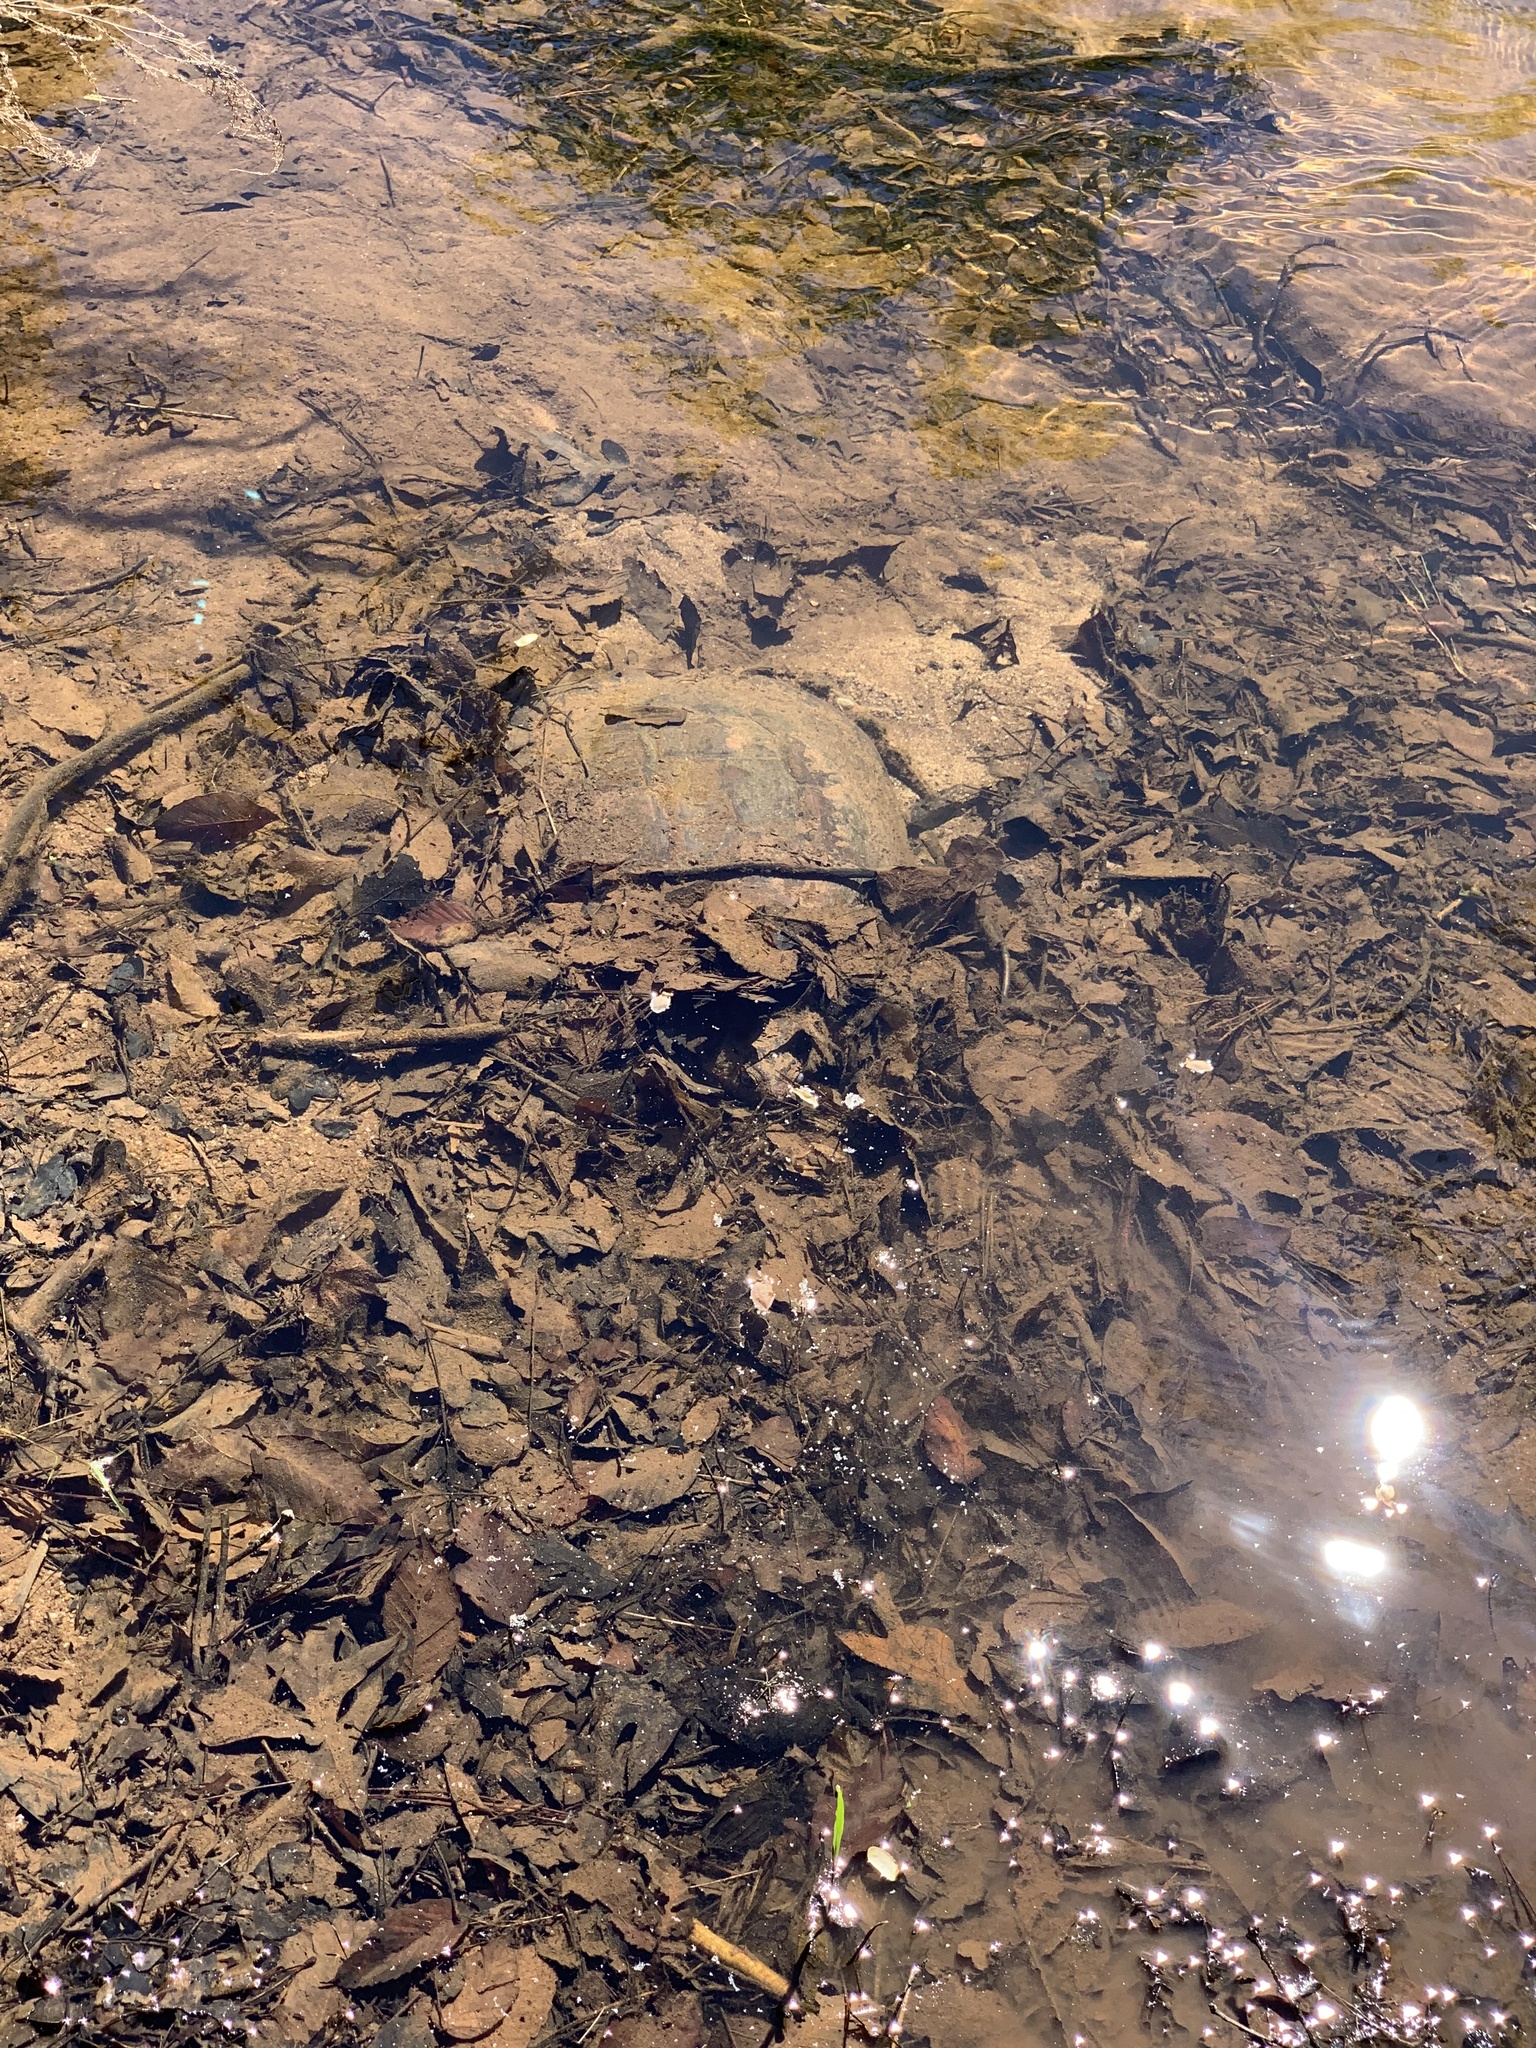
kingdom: Animalia
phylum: Chordata
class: Testudines
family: Chelydridae
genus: Chelydra
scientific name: Chelydra serpentina
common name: Common snapping turtle
